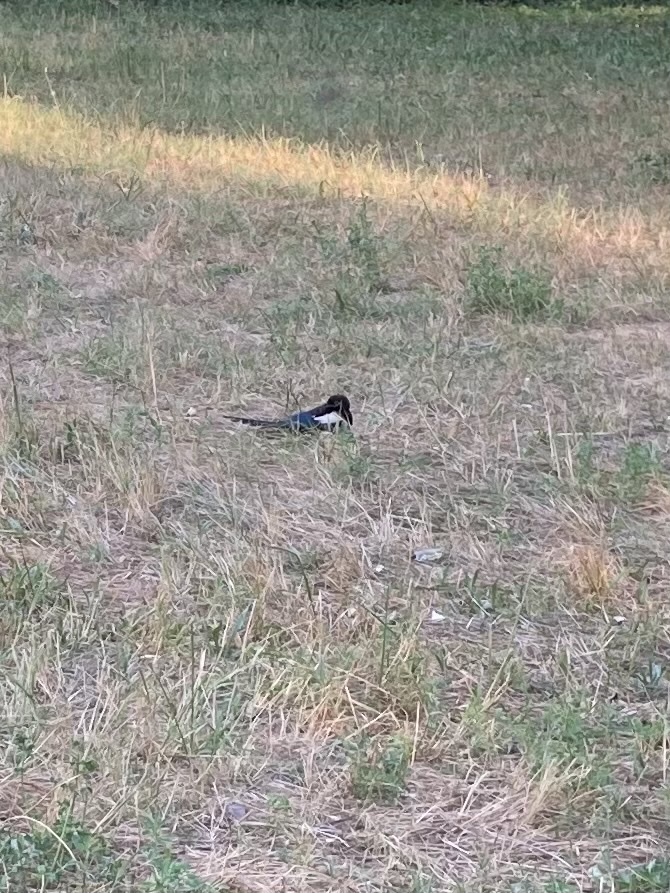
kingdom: Animalia
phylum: Chordata
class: Aves
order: Passeriformes
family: Corvidae
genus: Pica
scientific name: Pica pica
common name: Eurasian magpie
